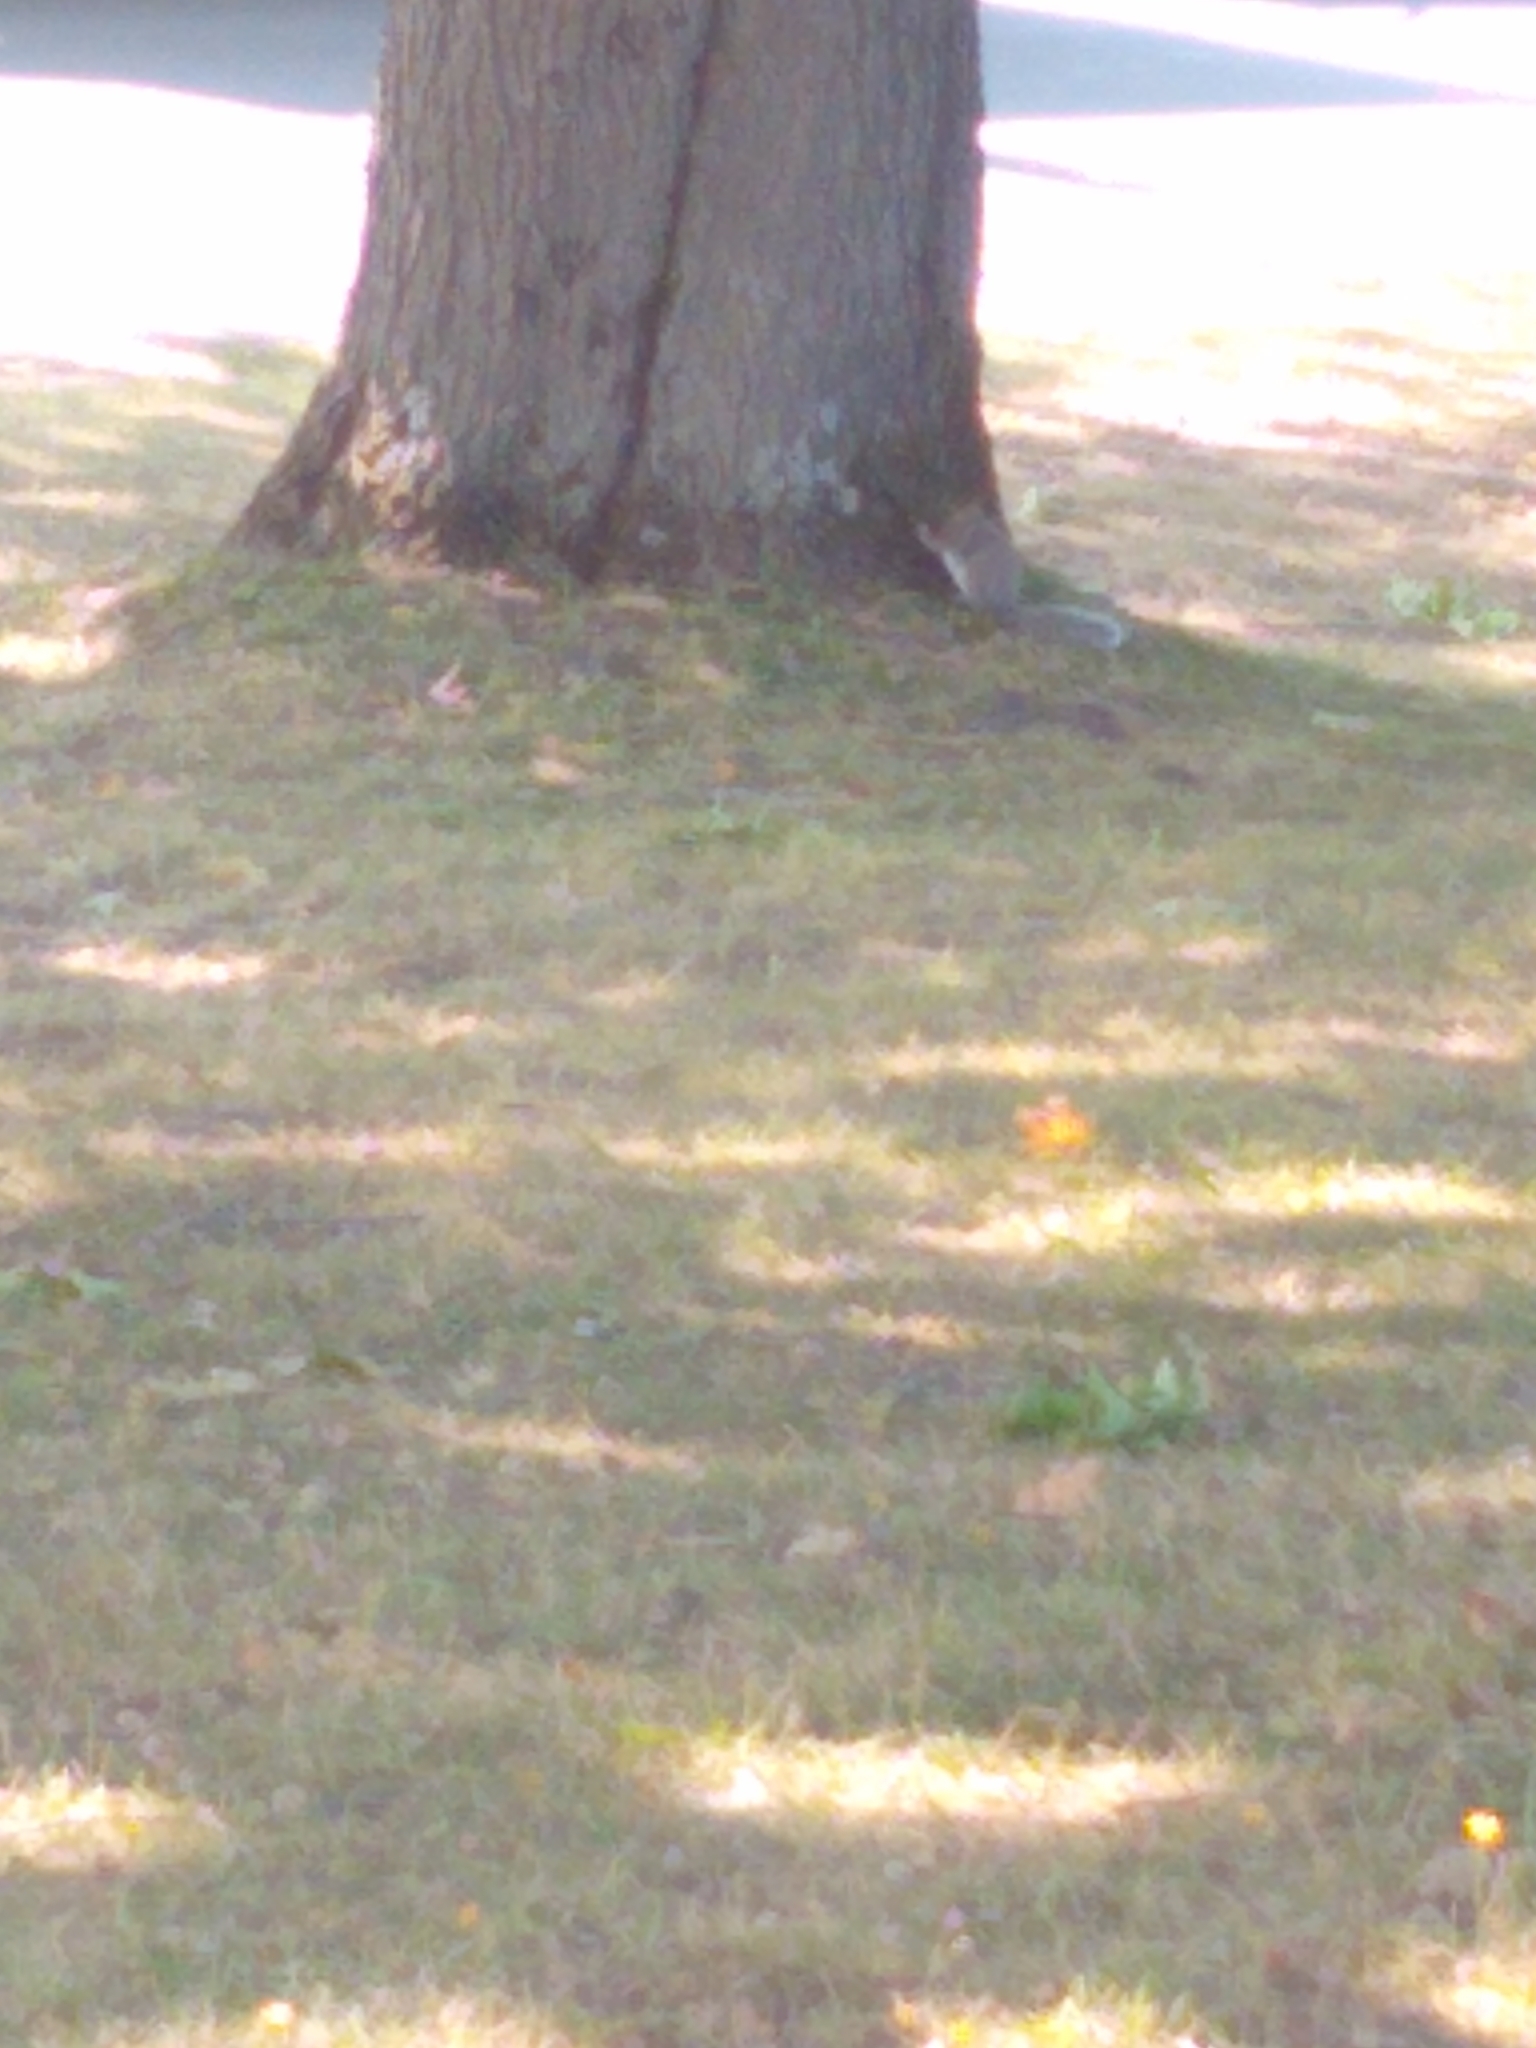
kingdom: Animalia
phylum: Chordata
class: Mammalia
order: Rodentia
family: Sciuridae
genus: Sciurus
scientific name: Sciurus carolinensis
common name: Eastern gray squirrel
